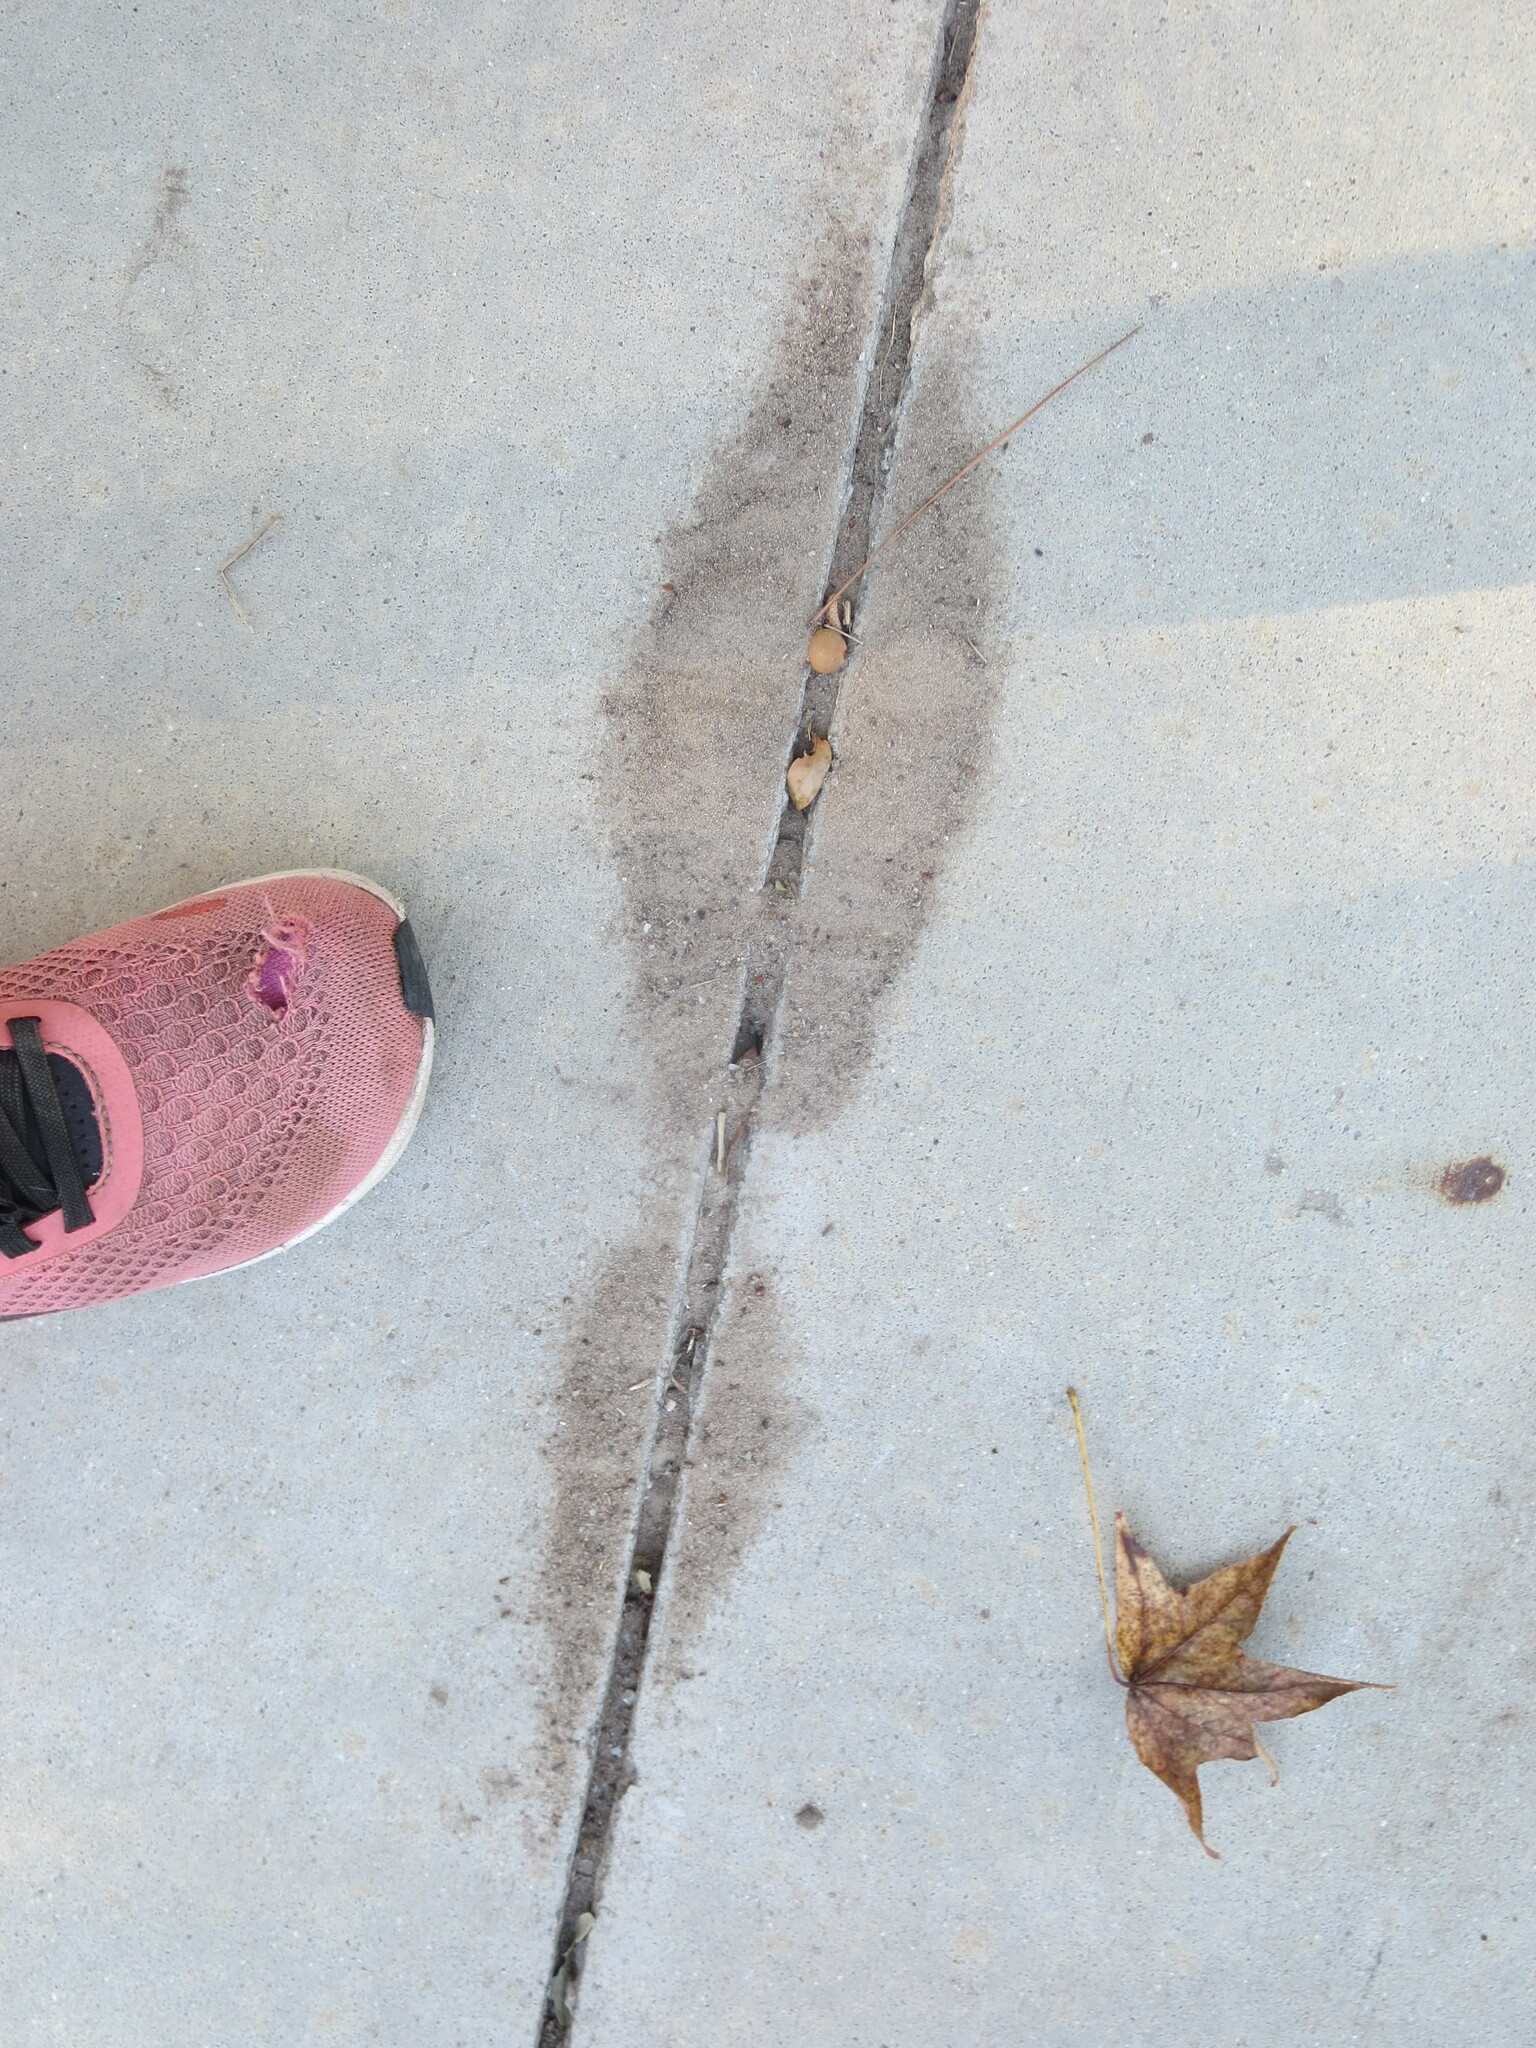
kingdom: Animalia
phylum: Arthropoda
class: Insecta
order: Hymenoptera
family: Formicidae
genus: Solenopsis
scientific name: Solenopsis invicta
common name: Red imported fire ant
